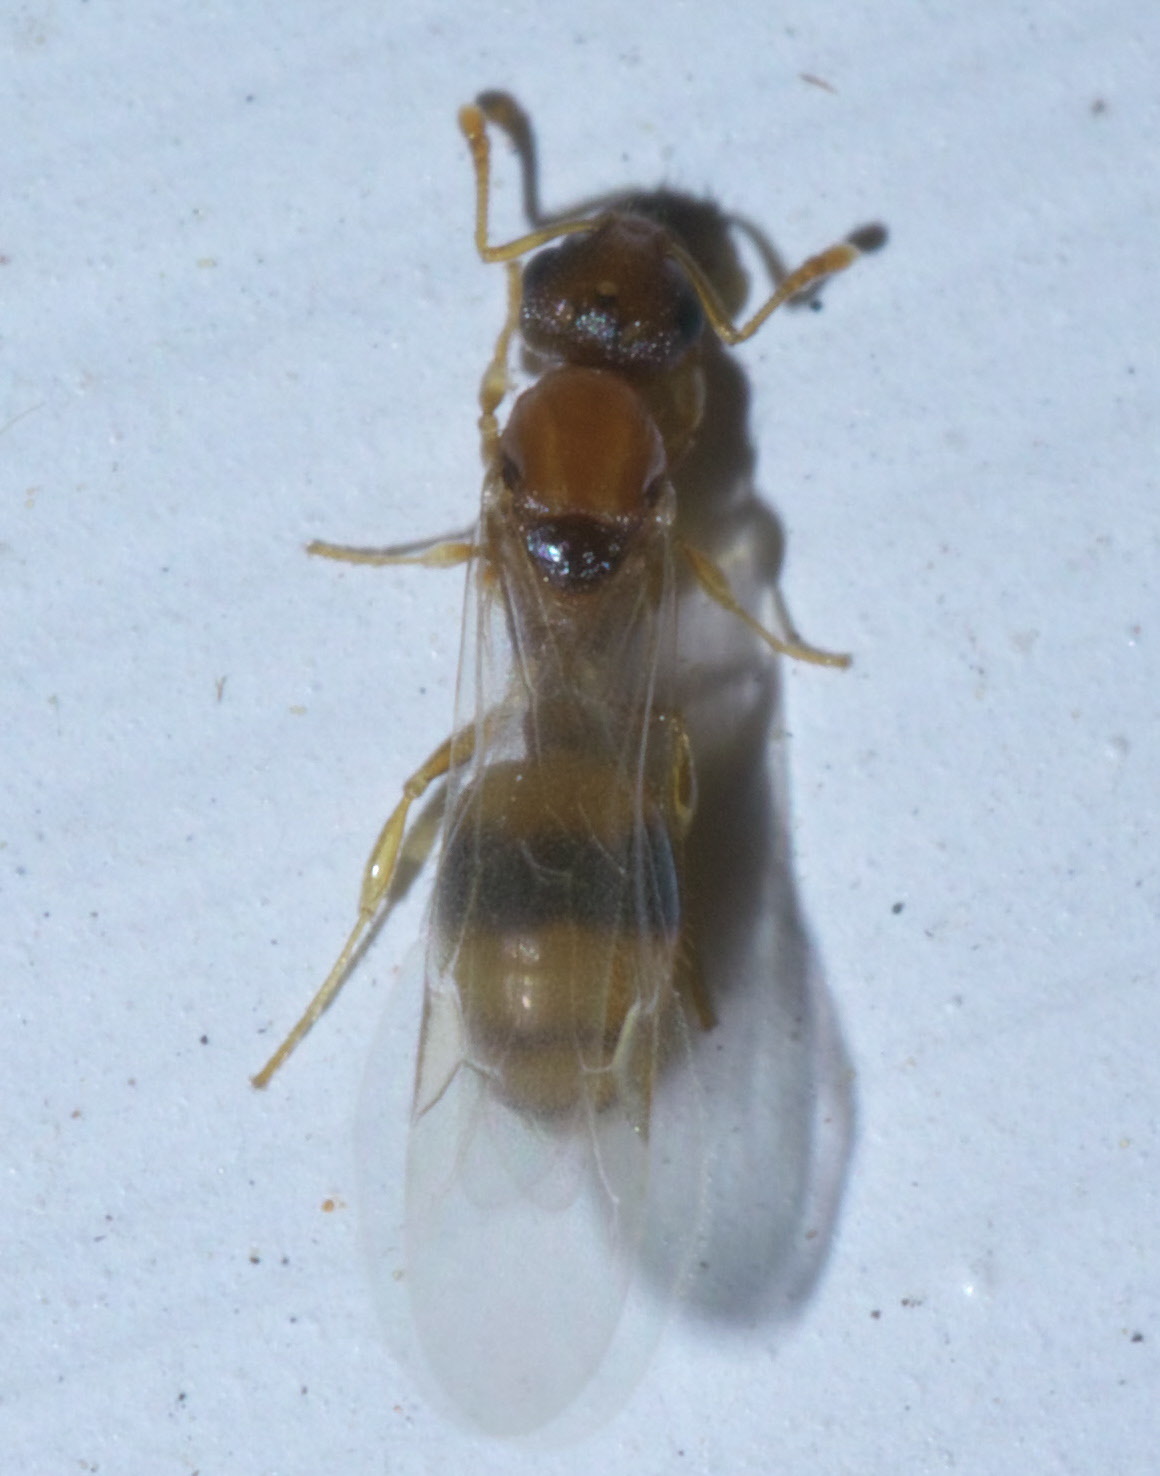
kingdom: Animalia
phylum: Arthropoda
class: Insecta
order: Hymenoptera
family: Formicidae
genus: Temnothorax
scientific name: Temnothorax curvispinosus
